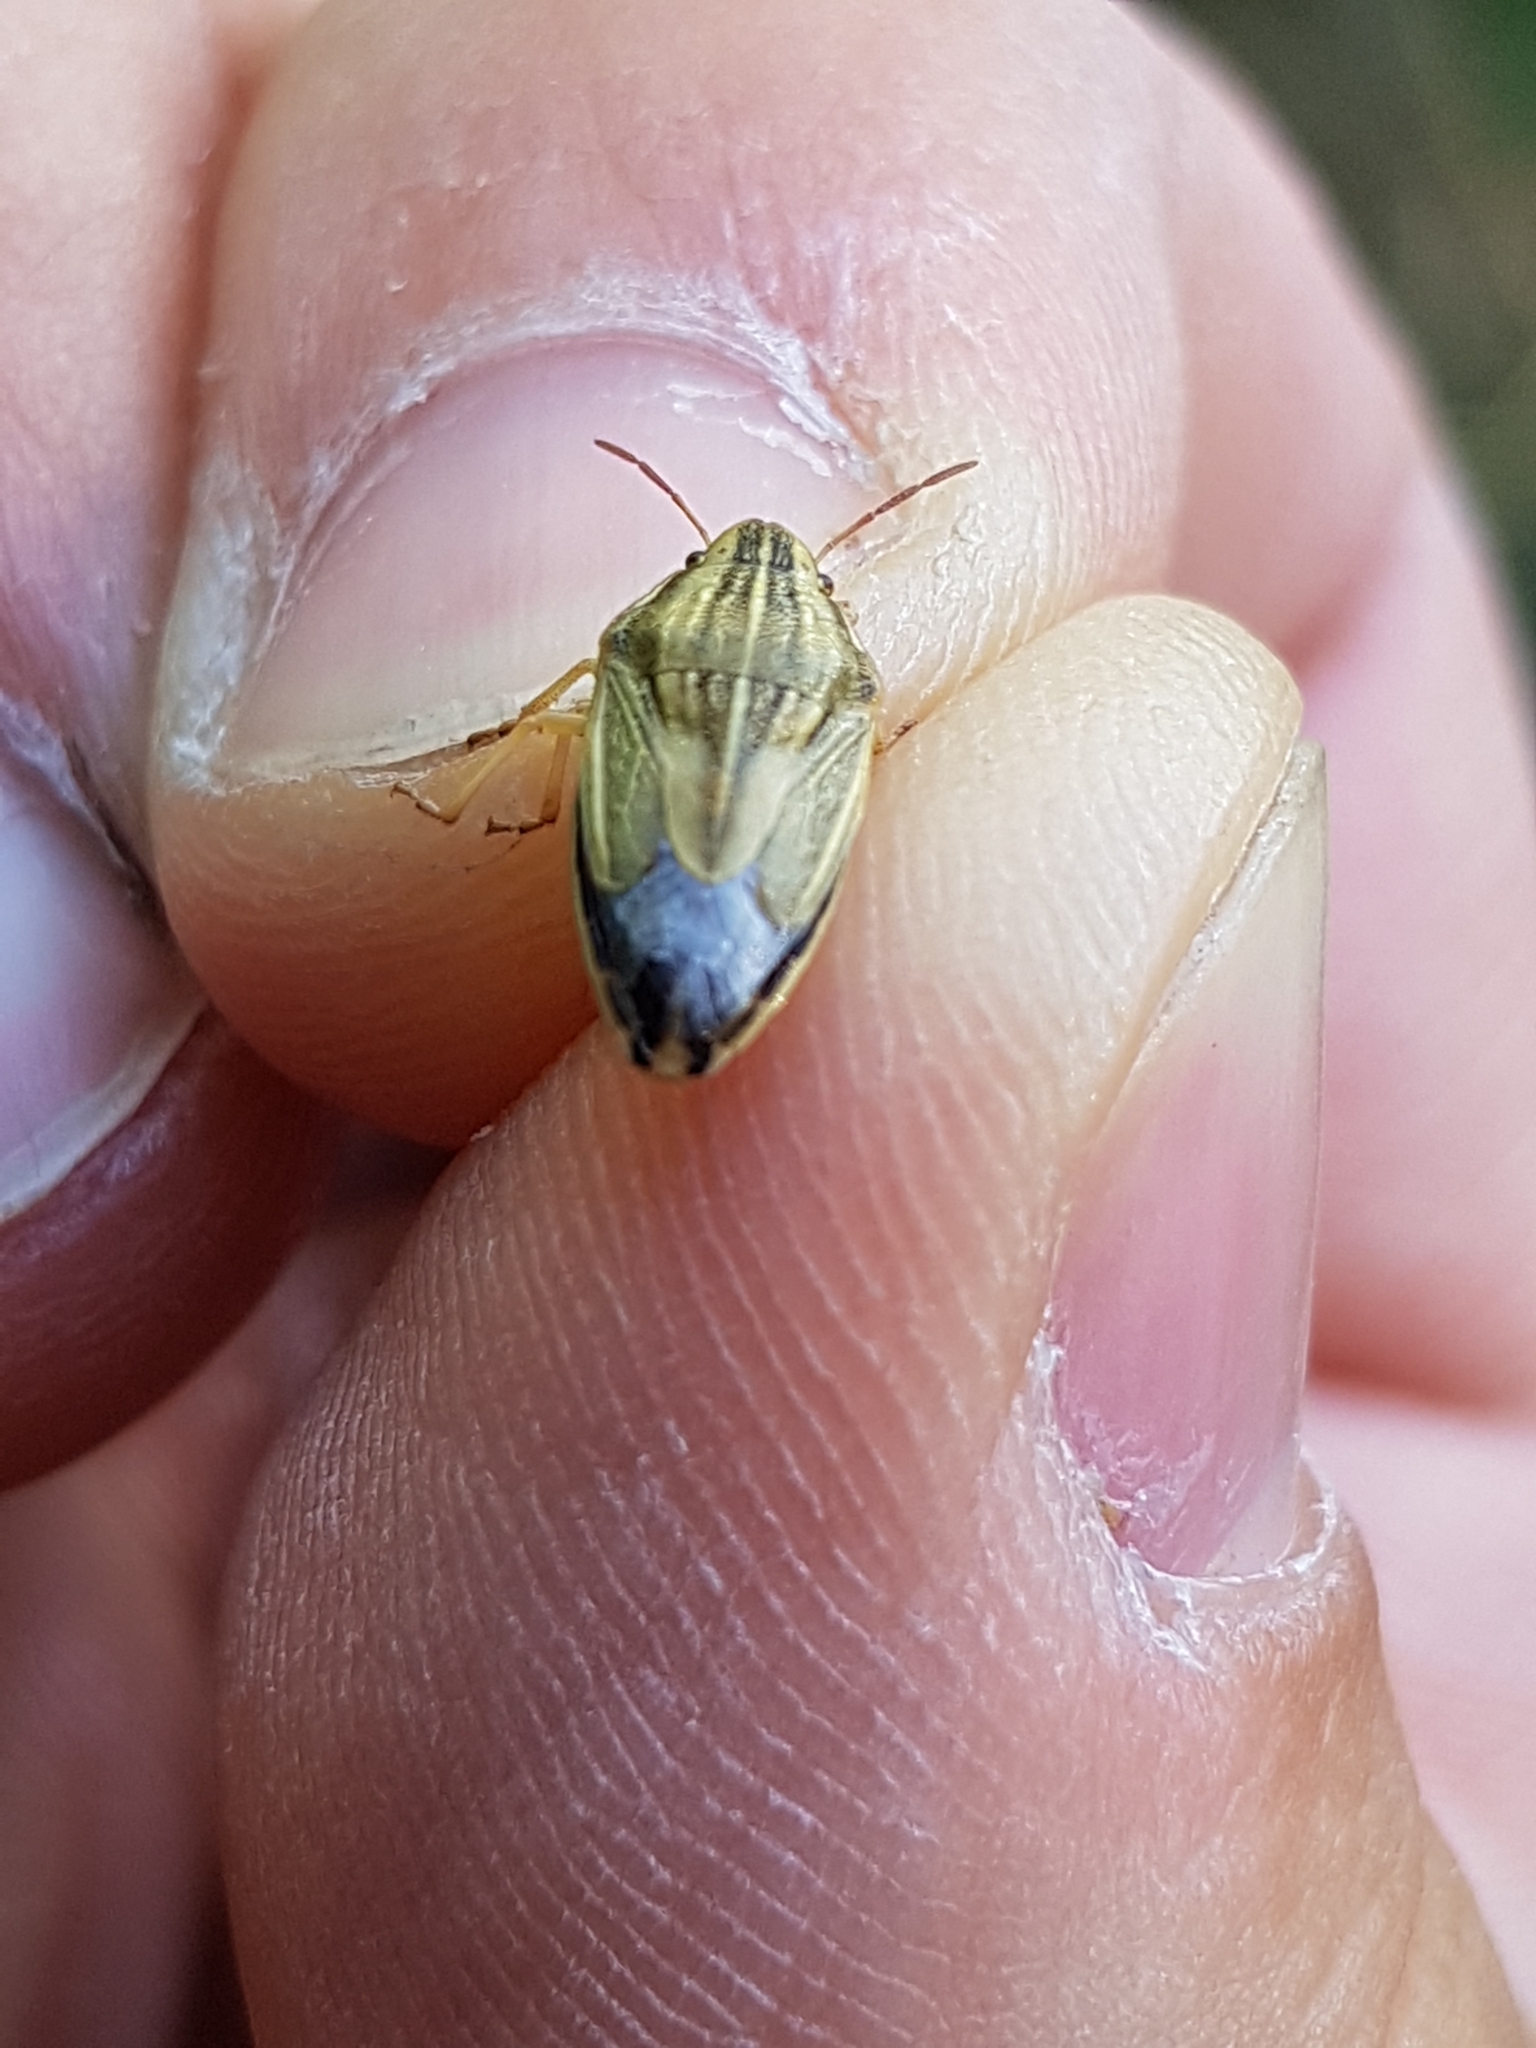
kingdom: Animalia
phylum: Arthropoda
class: Insecta
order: Hemiptera
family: Pentatomidae
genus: Aelia
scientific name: Aelia acuminata
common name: Bishop's mitre
